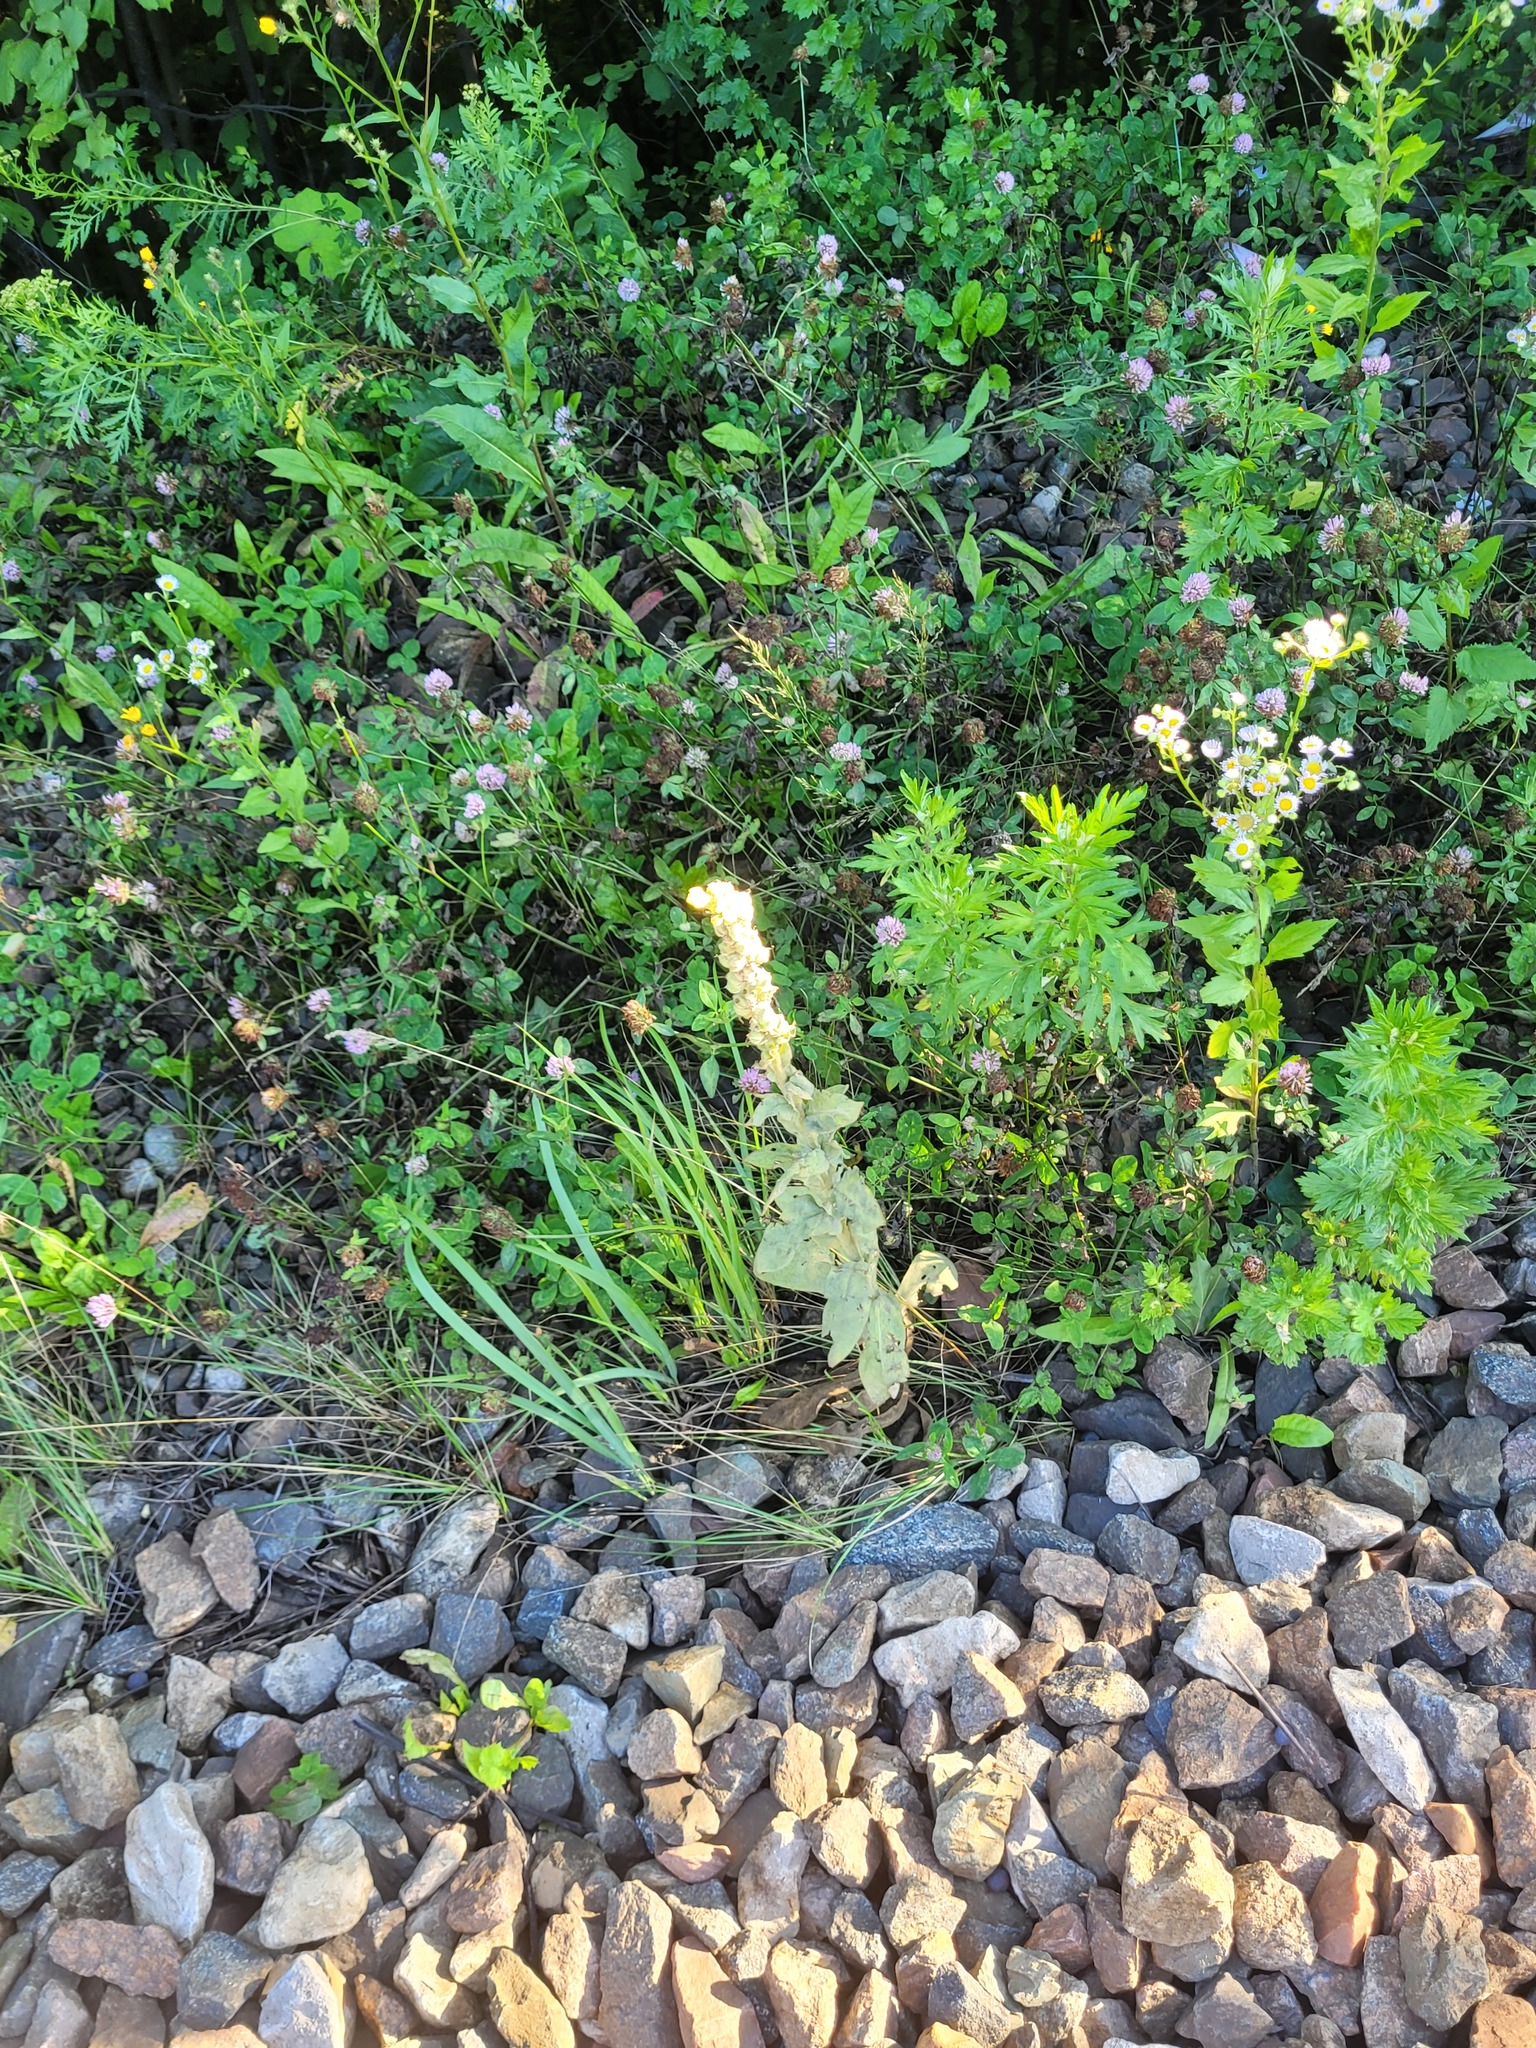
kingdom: Plantae
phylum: Tracheophyta
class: Magnoliopsida
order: Lamiales
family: Scrophulariaceae
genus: Verbascum
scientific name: Verbascum thapsus
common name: Common mullein
